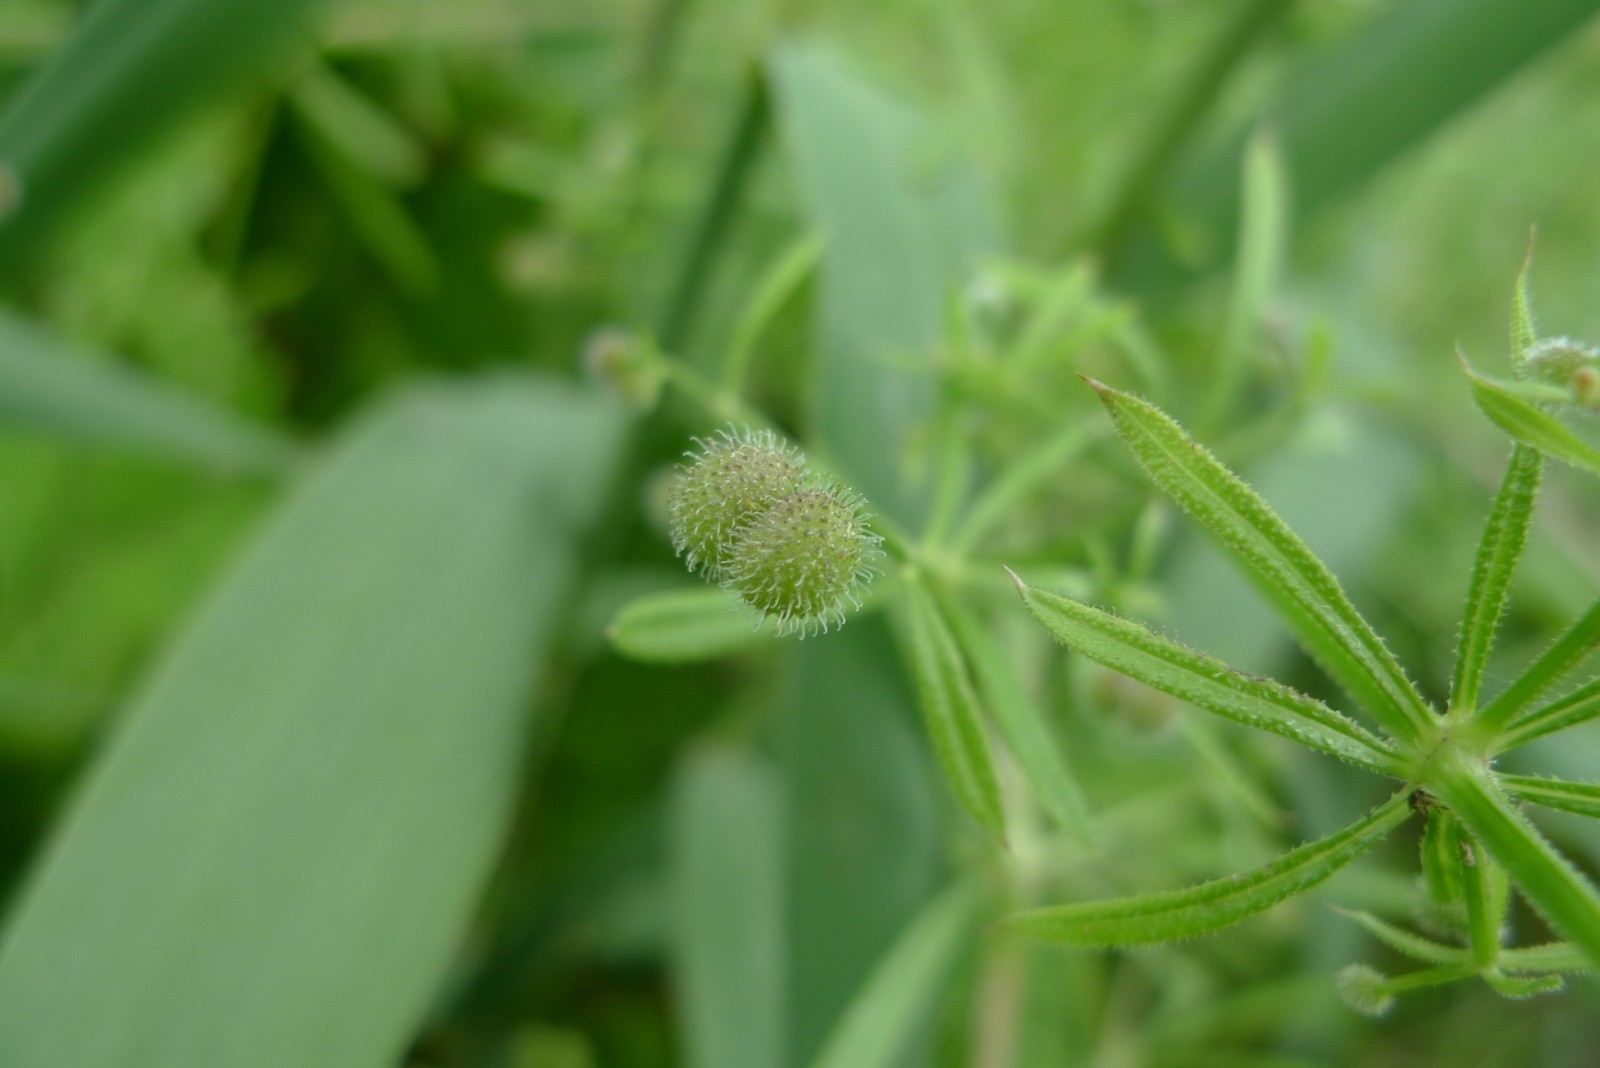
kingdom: Plantae
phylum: Tracheophyta
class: Magnoliopsida
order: Gentianales
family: Rubiaceae
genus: Galium
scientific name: Galium aparine
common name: Cleavers
